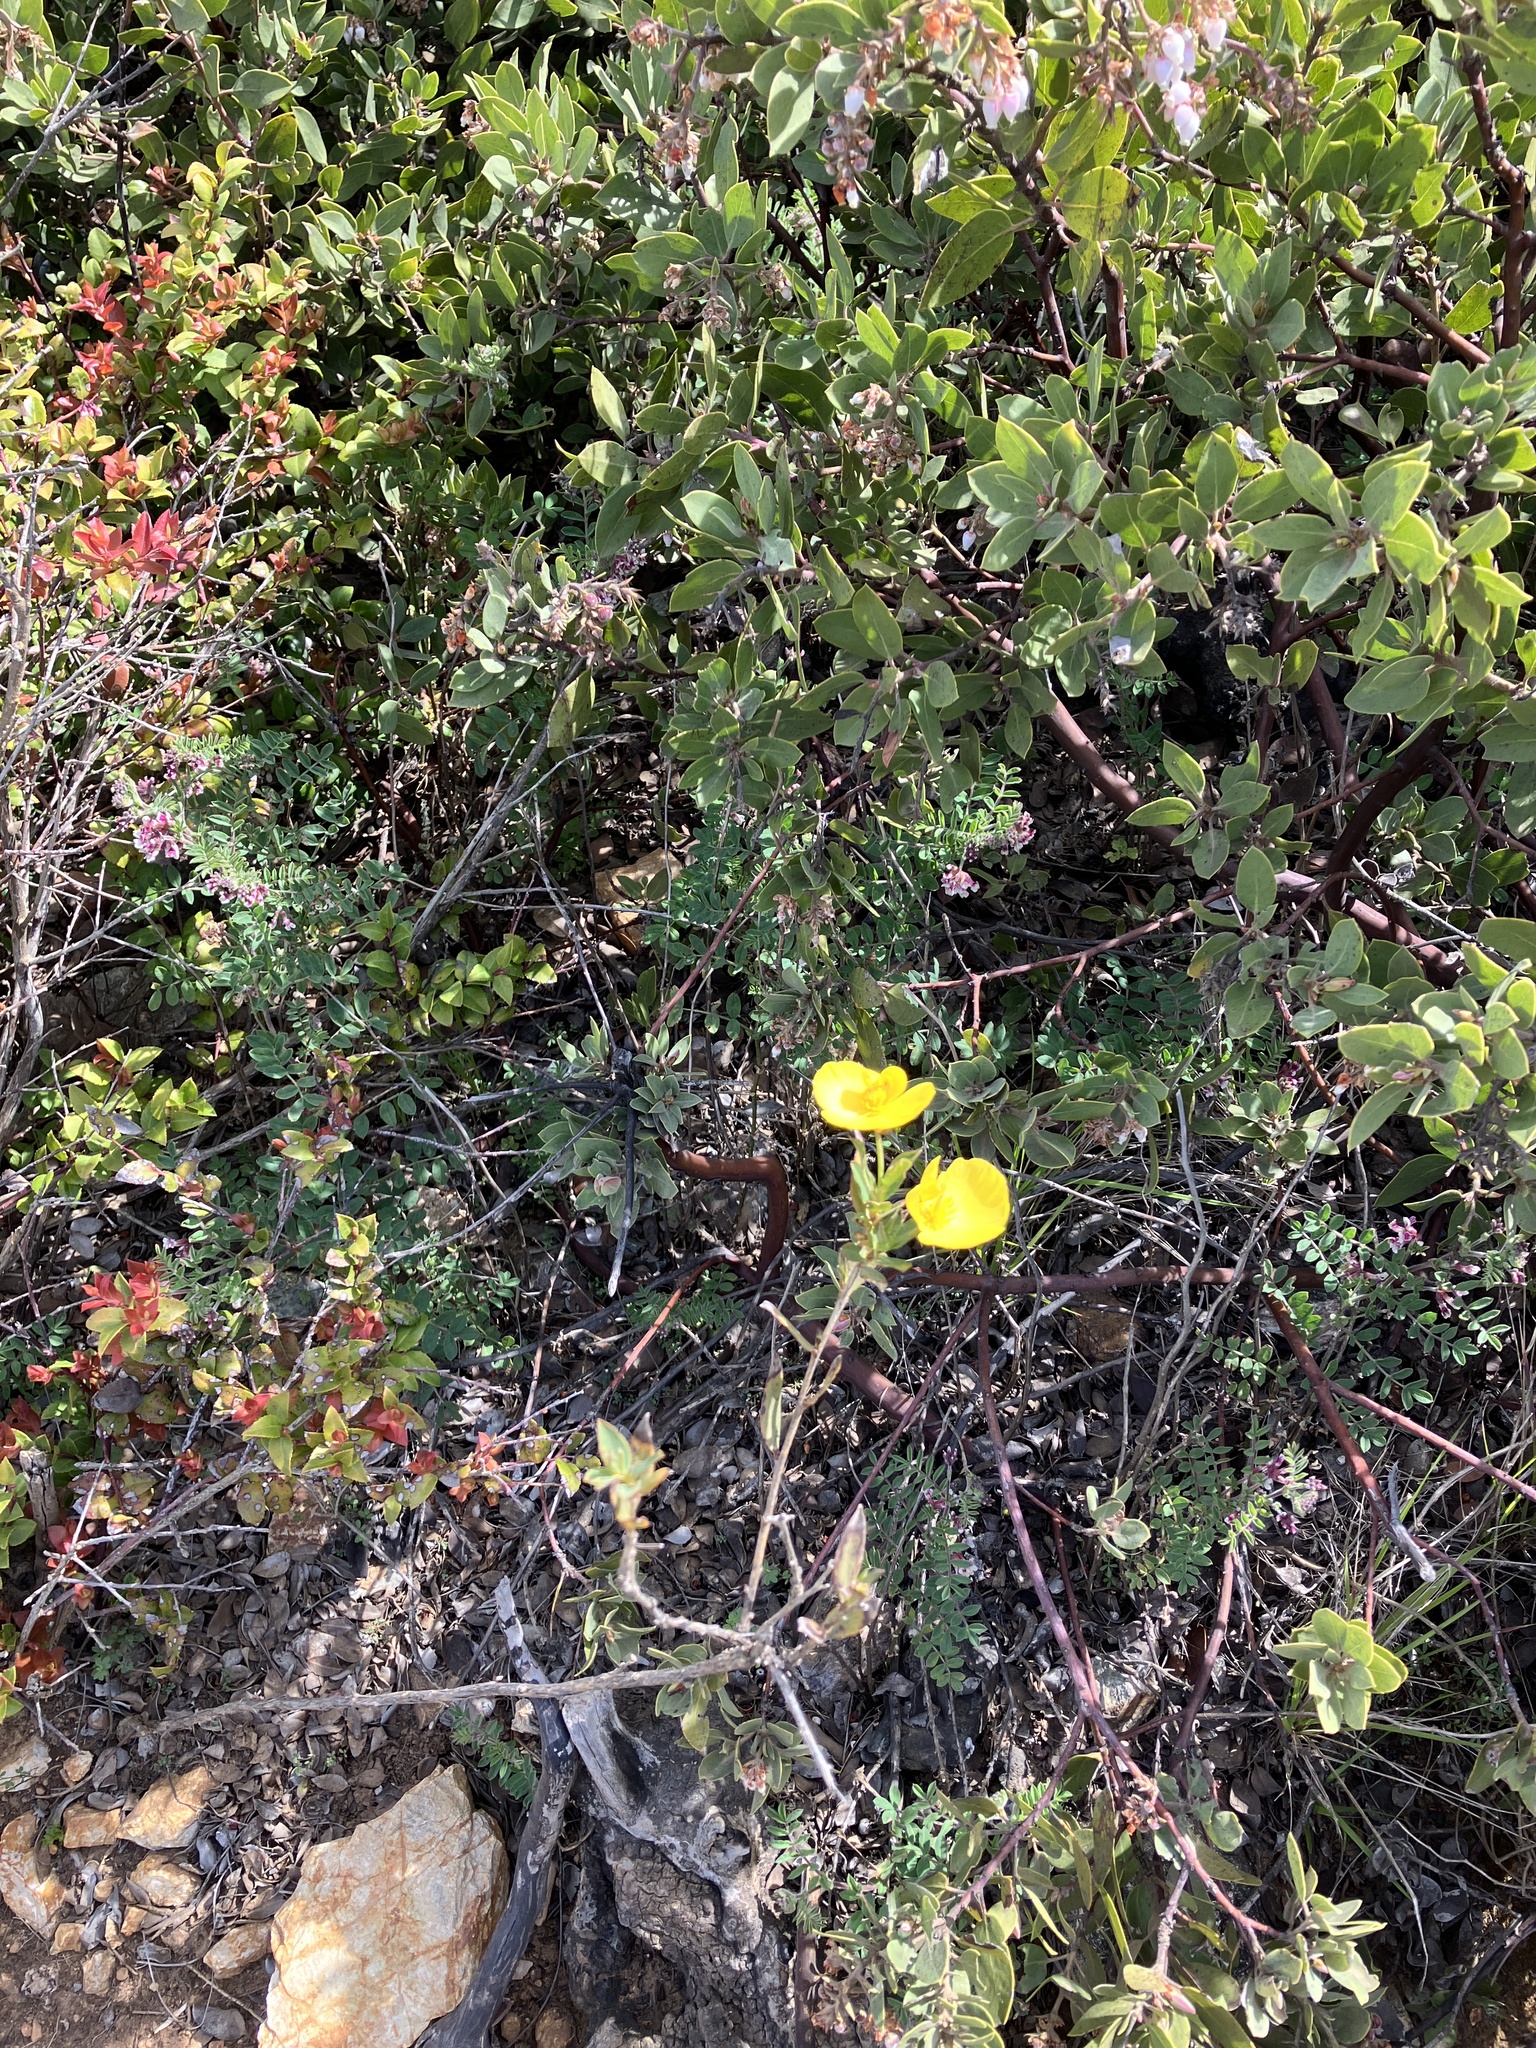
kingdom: Plantae
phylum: Tracheophyta
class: Magnoliopsida
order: Ranunculales
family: Papaveraceae
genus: Dendromecon
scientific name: Dendromecon rigida
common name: Tree poppy
